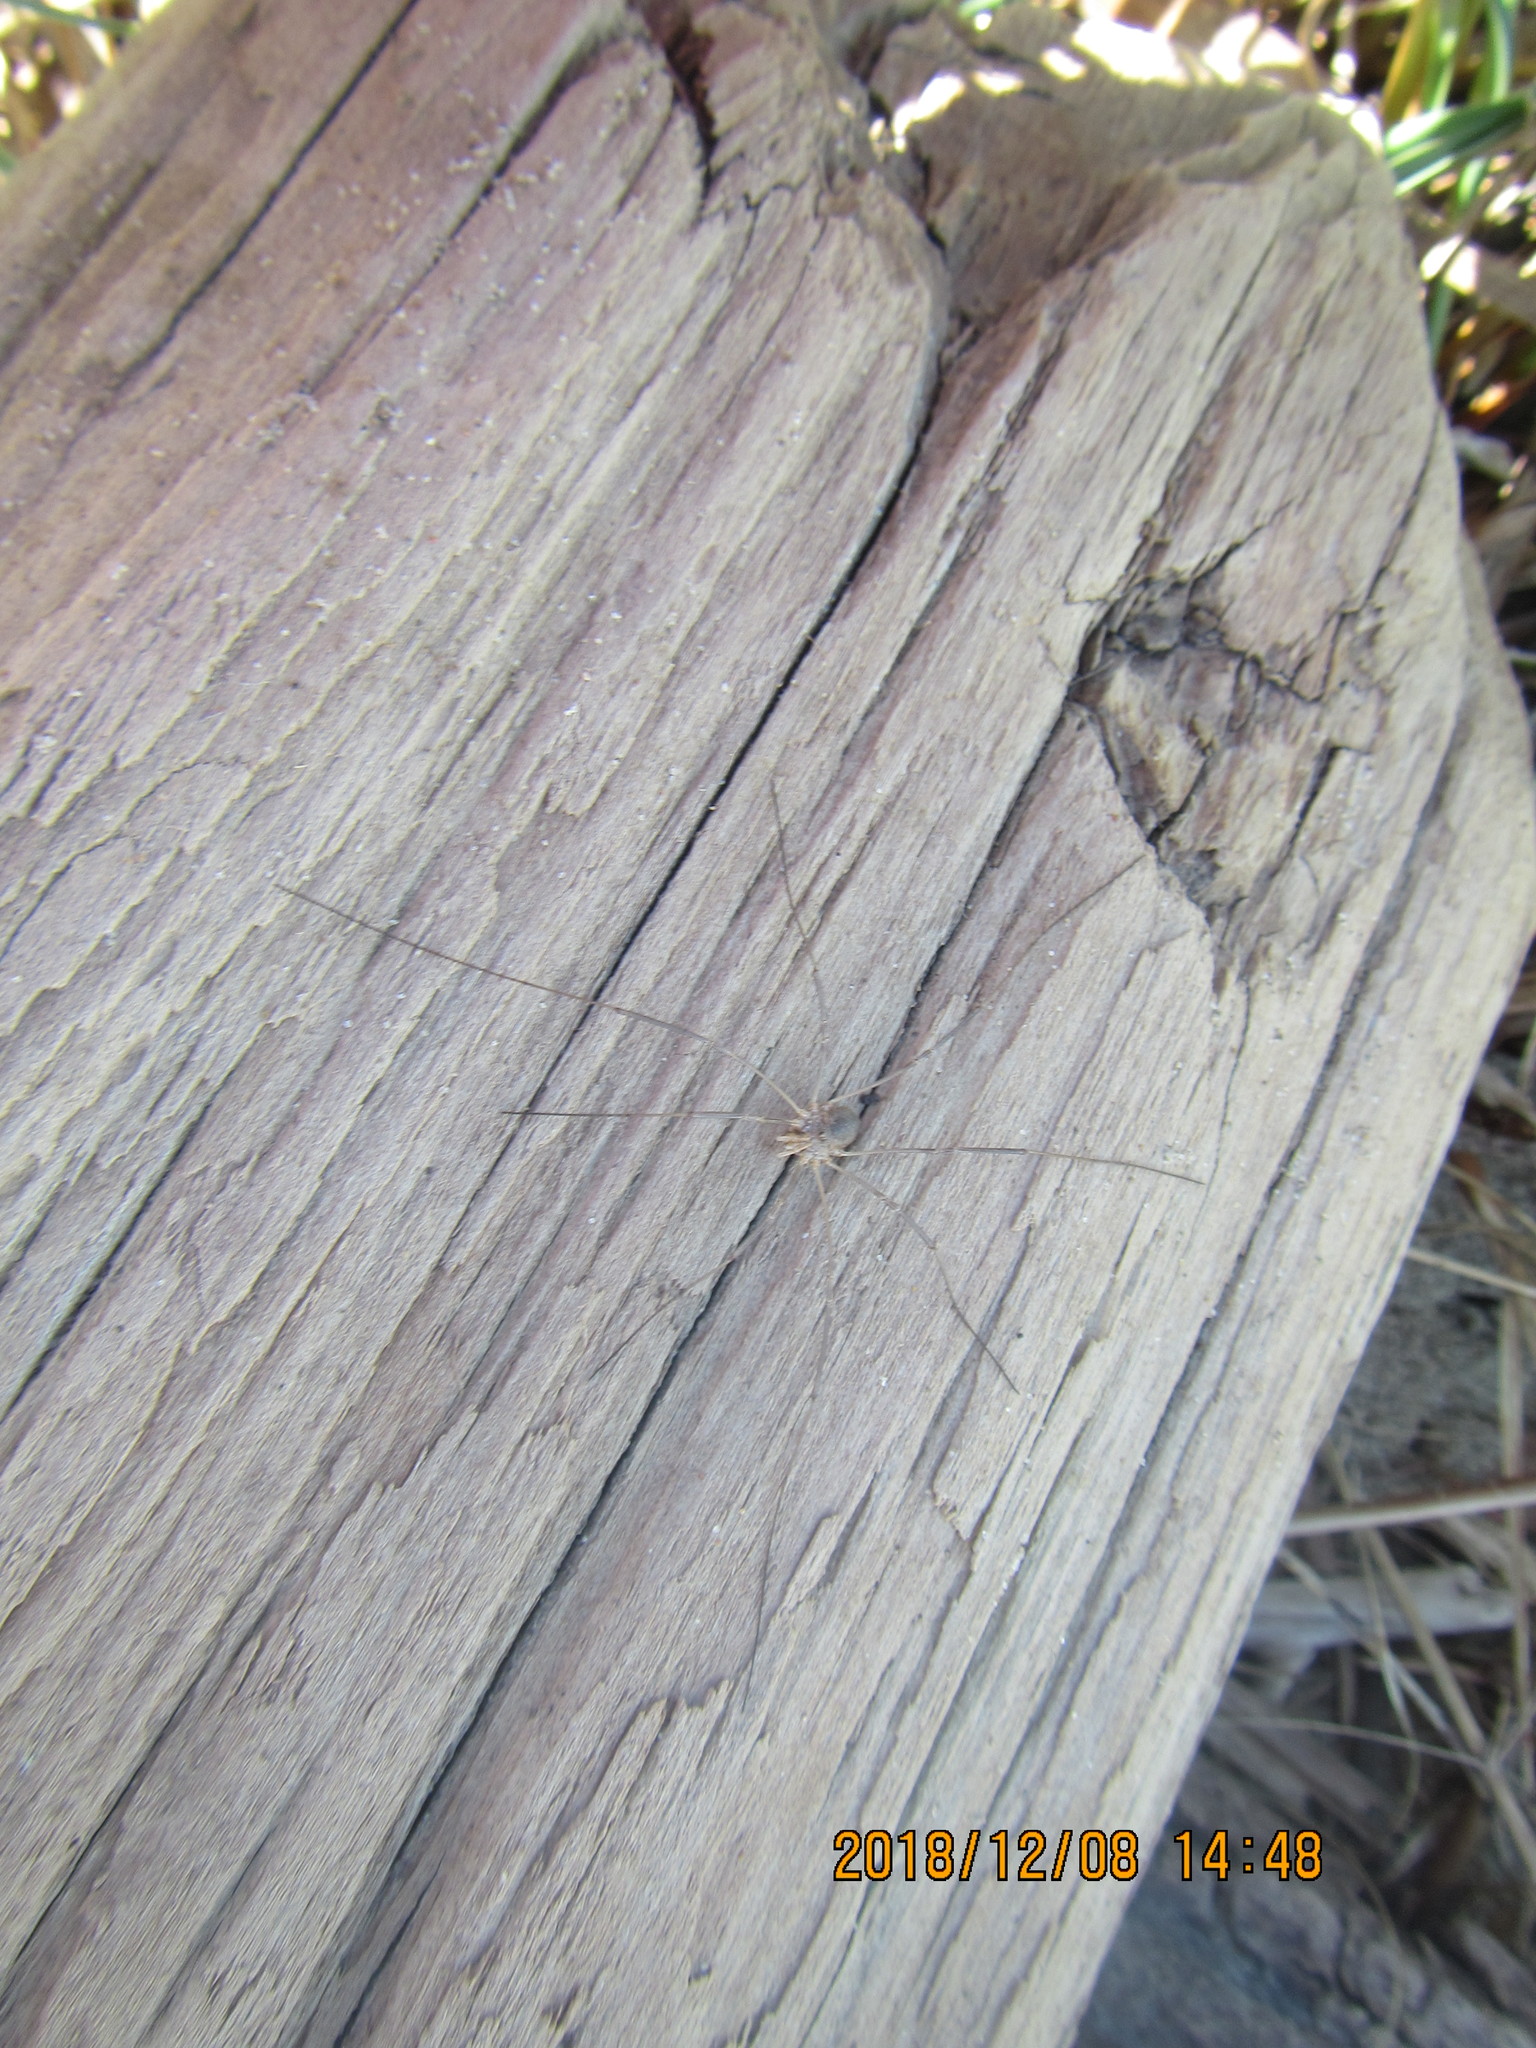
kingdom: Animalia
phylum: Arthropoda
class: Arachnida
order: Opiliones
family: Phalangiidae
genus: Phalangium
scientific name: Phalangium opilio
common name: Daddy longleg
